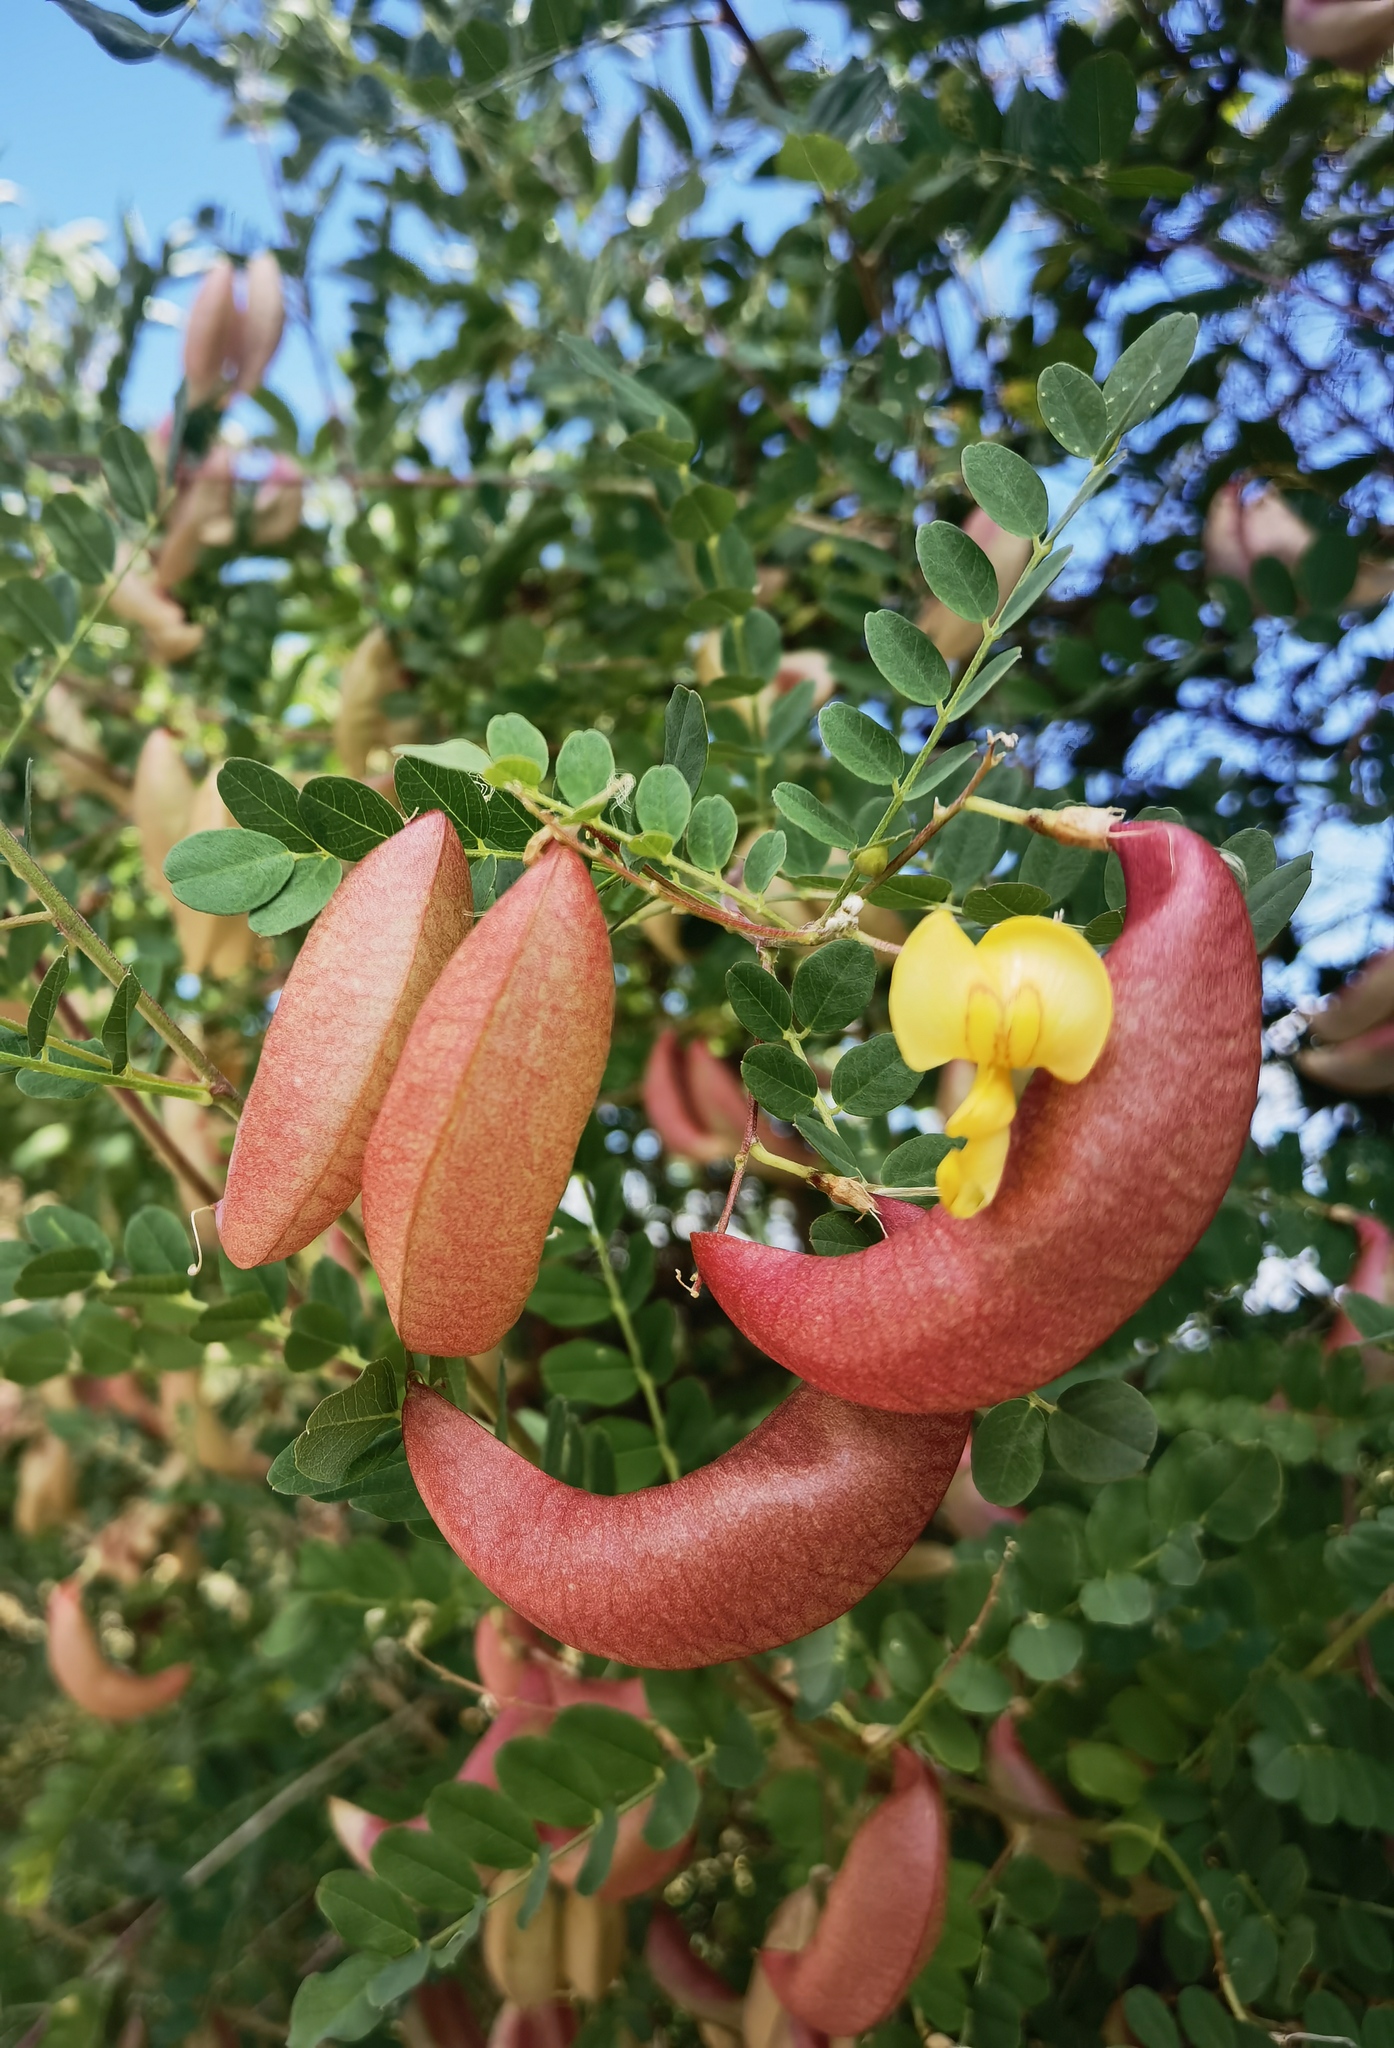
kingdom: Plantae
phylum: Tracheophyta
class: Magnoliopsida
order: Fabales
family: Fabaceae
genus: Colutea
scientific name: Colutea arborescens
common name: Bladder-senna
